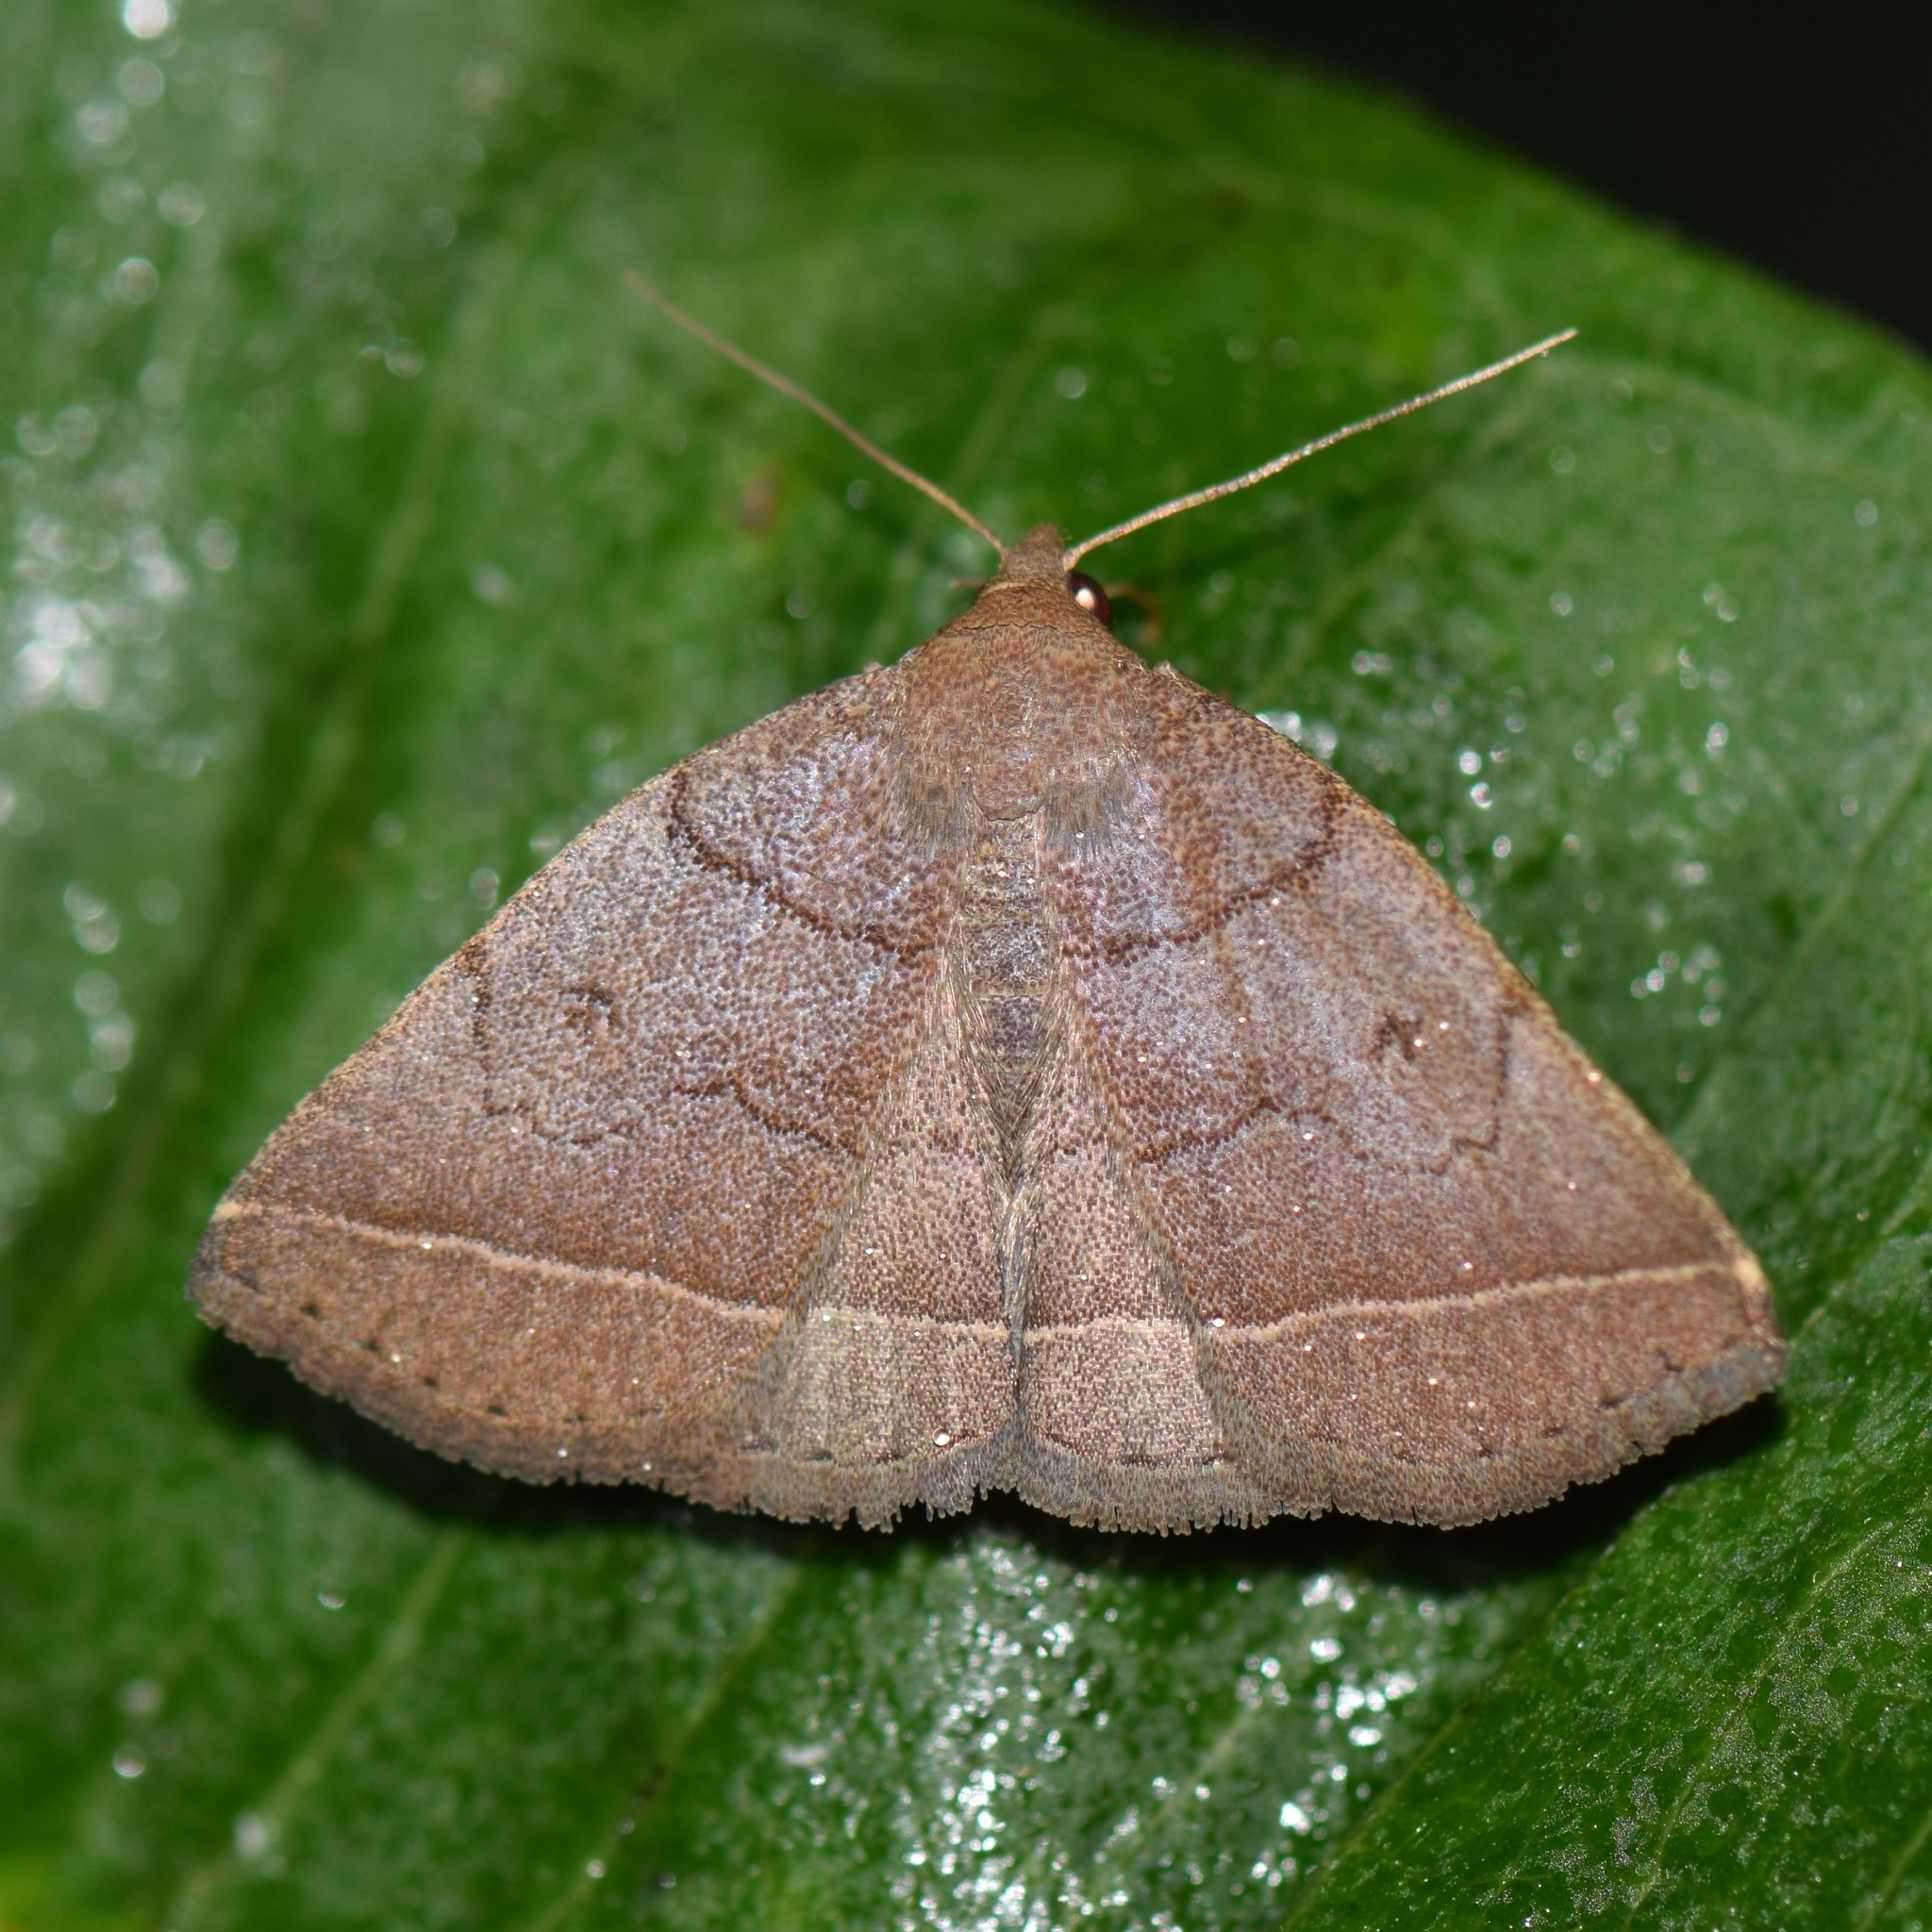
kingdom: Animalia
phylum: Arthropoda
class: Insecta
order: Lepidoptera
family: Erebidae
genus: Zanclognatha
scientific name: Zanclognatha obscuripennis
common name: Dark fan-foot
